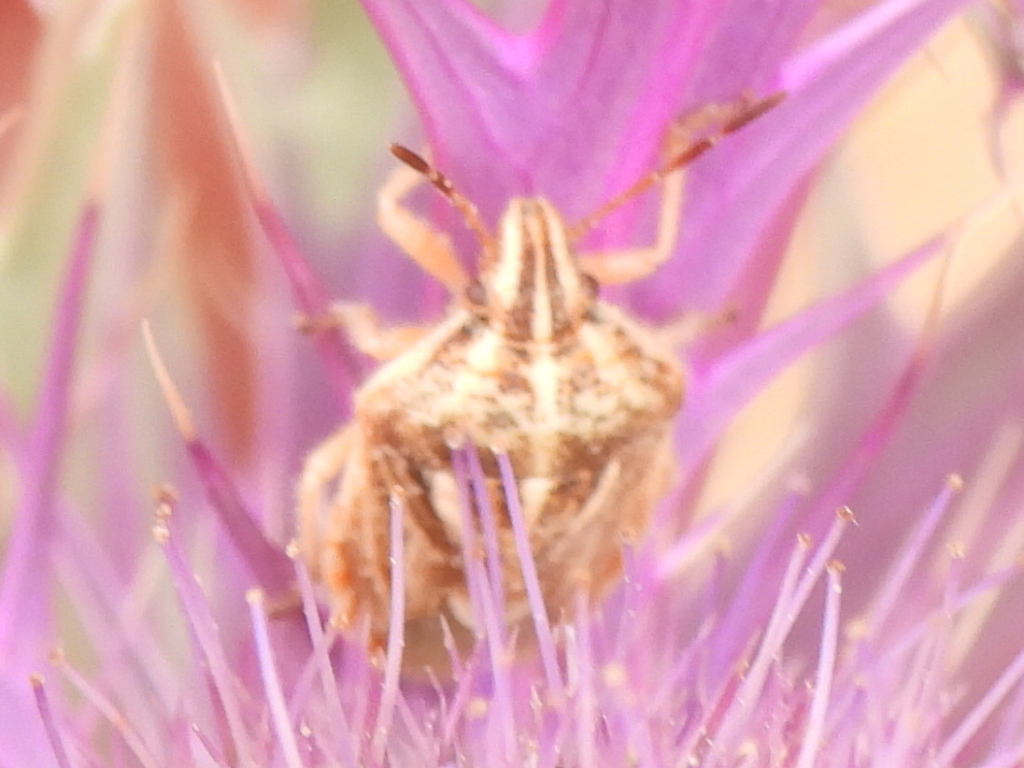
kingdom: Animalia
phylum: Arthropoda
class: Insecta
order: Hemiptera
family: Pentatomidae
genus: Trichopepla
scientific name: Trichopepla semivittata
